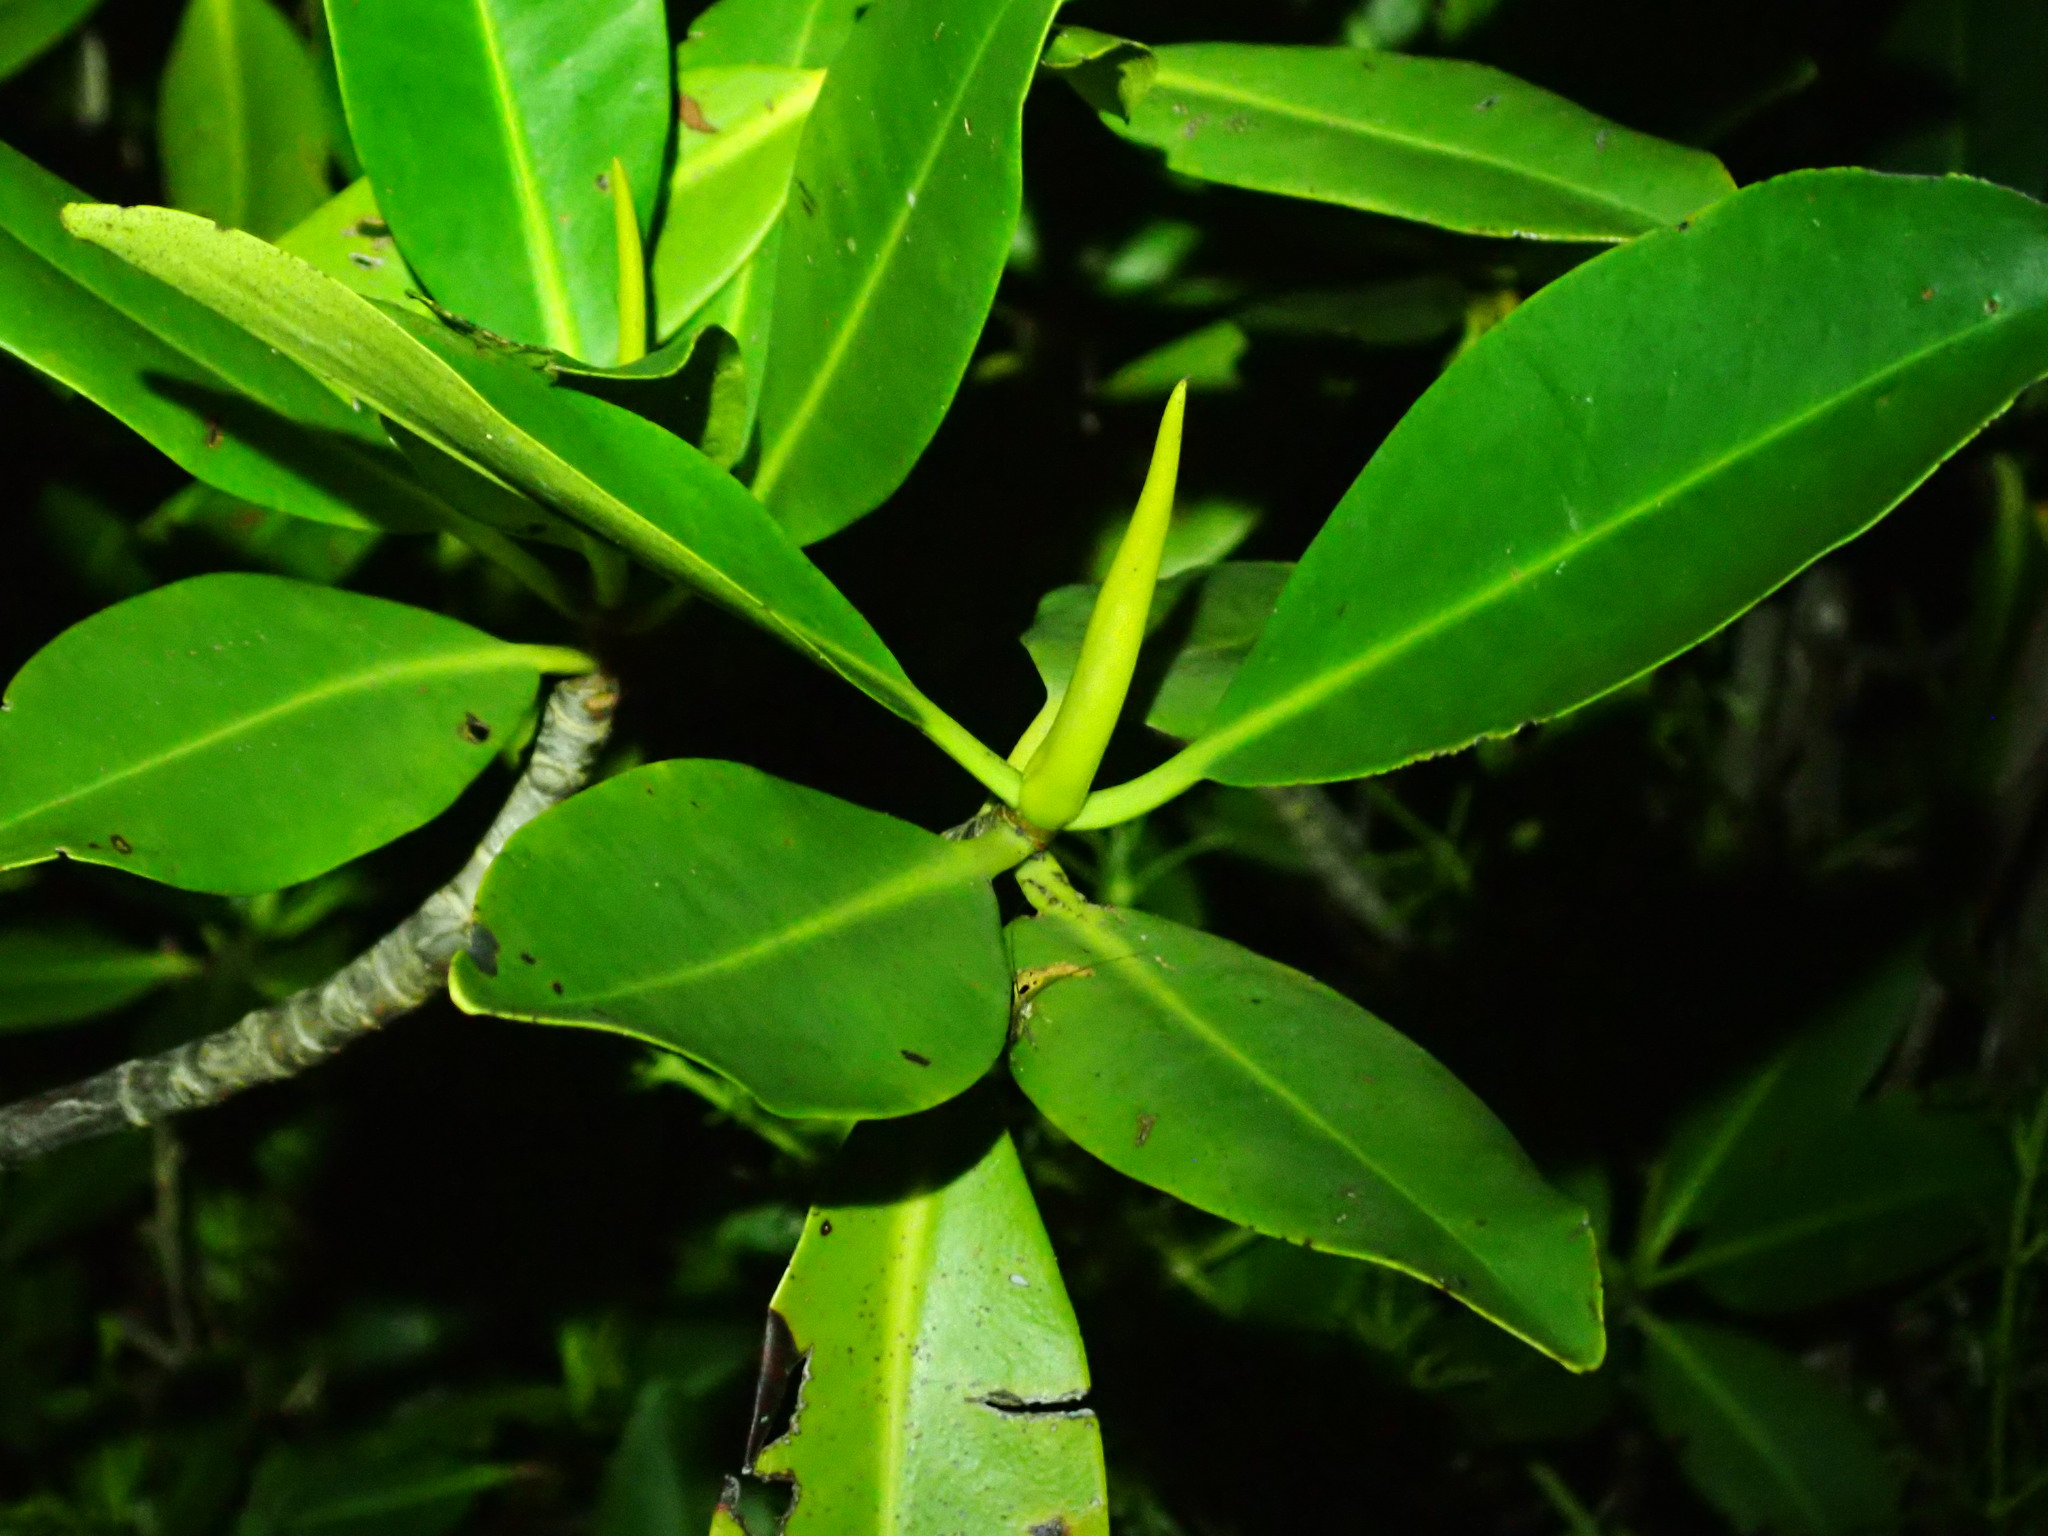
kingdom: Plantae
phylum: Tracheophyta
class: Magnoliopsida
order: Malpighiales
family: Rhizophoraceae
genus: Rhizophora
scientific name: Rhizophora mangle
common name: Red mangrove
